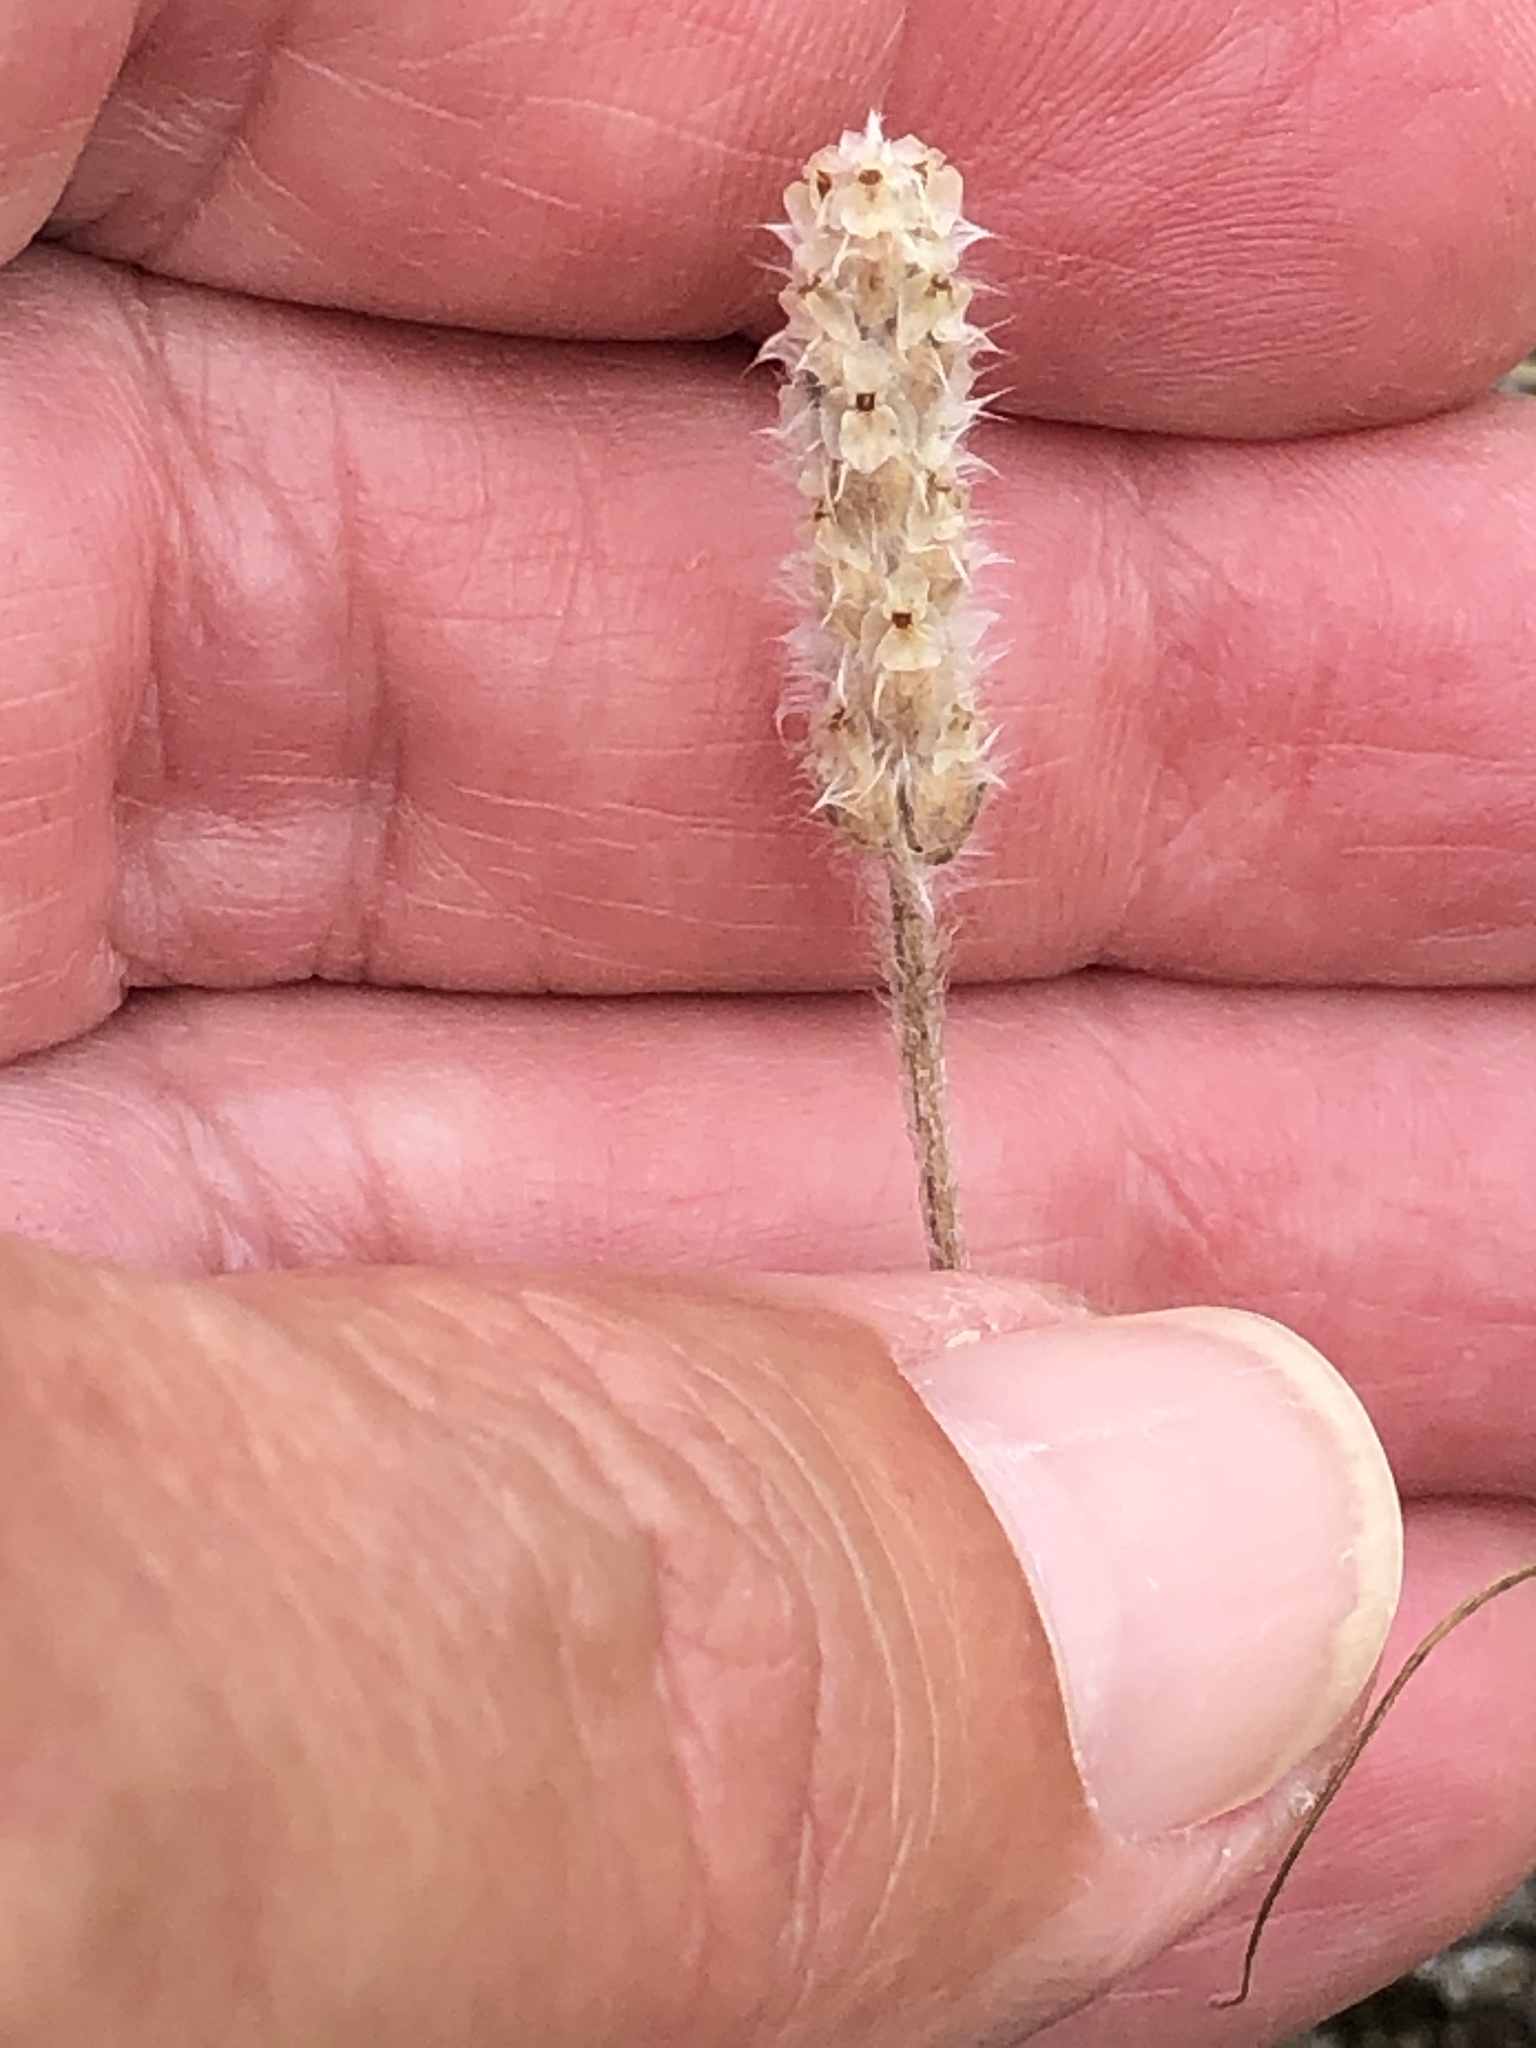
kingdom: Plantae
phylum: Tracheophyta
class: Magnoliopsida
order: Lamiales
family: Plantaginaceae
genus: Plantago
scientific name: Plantago patagonica
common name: Patagonia indian-wheat
